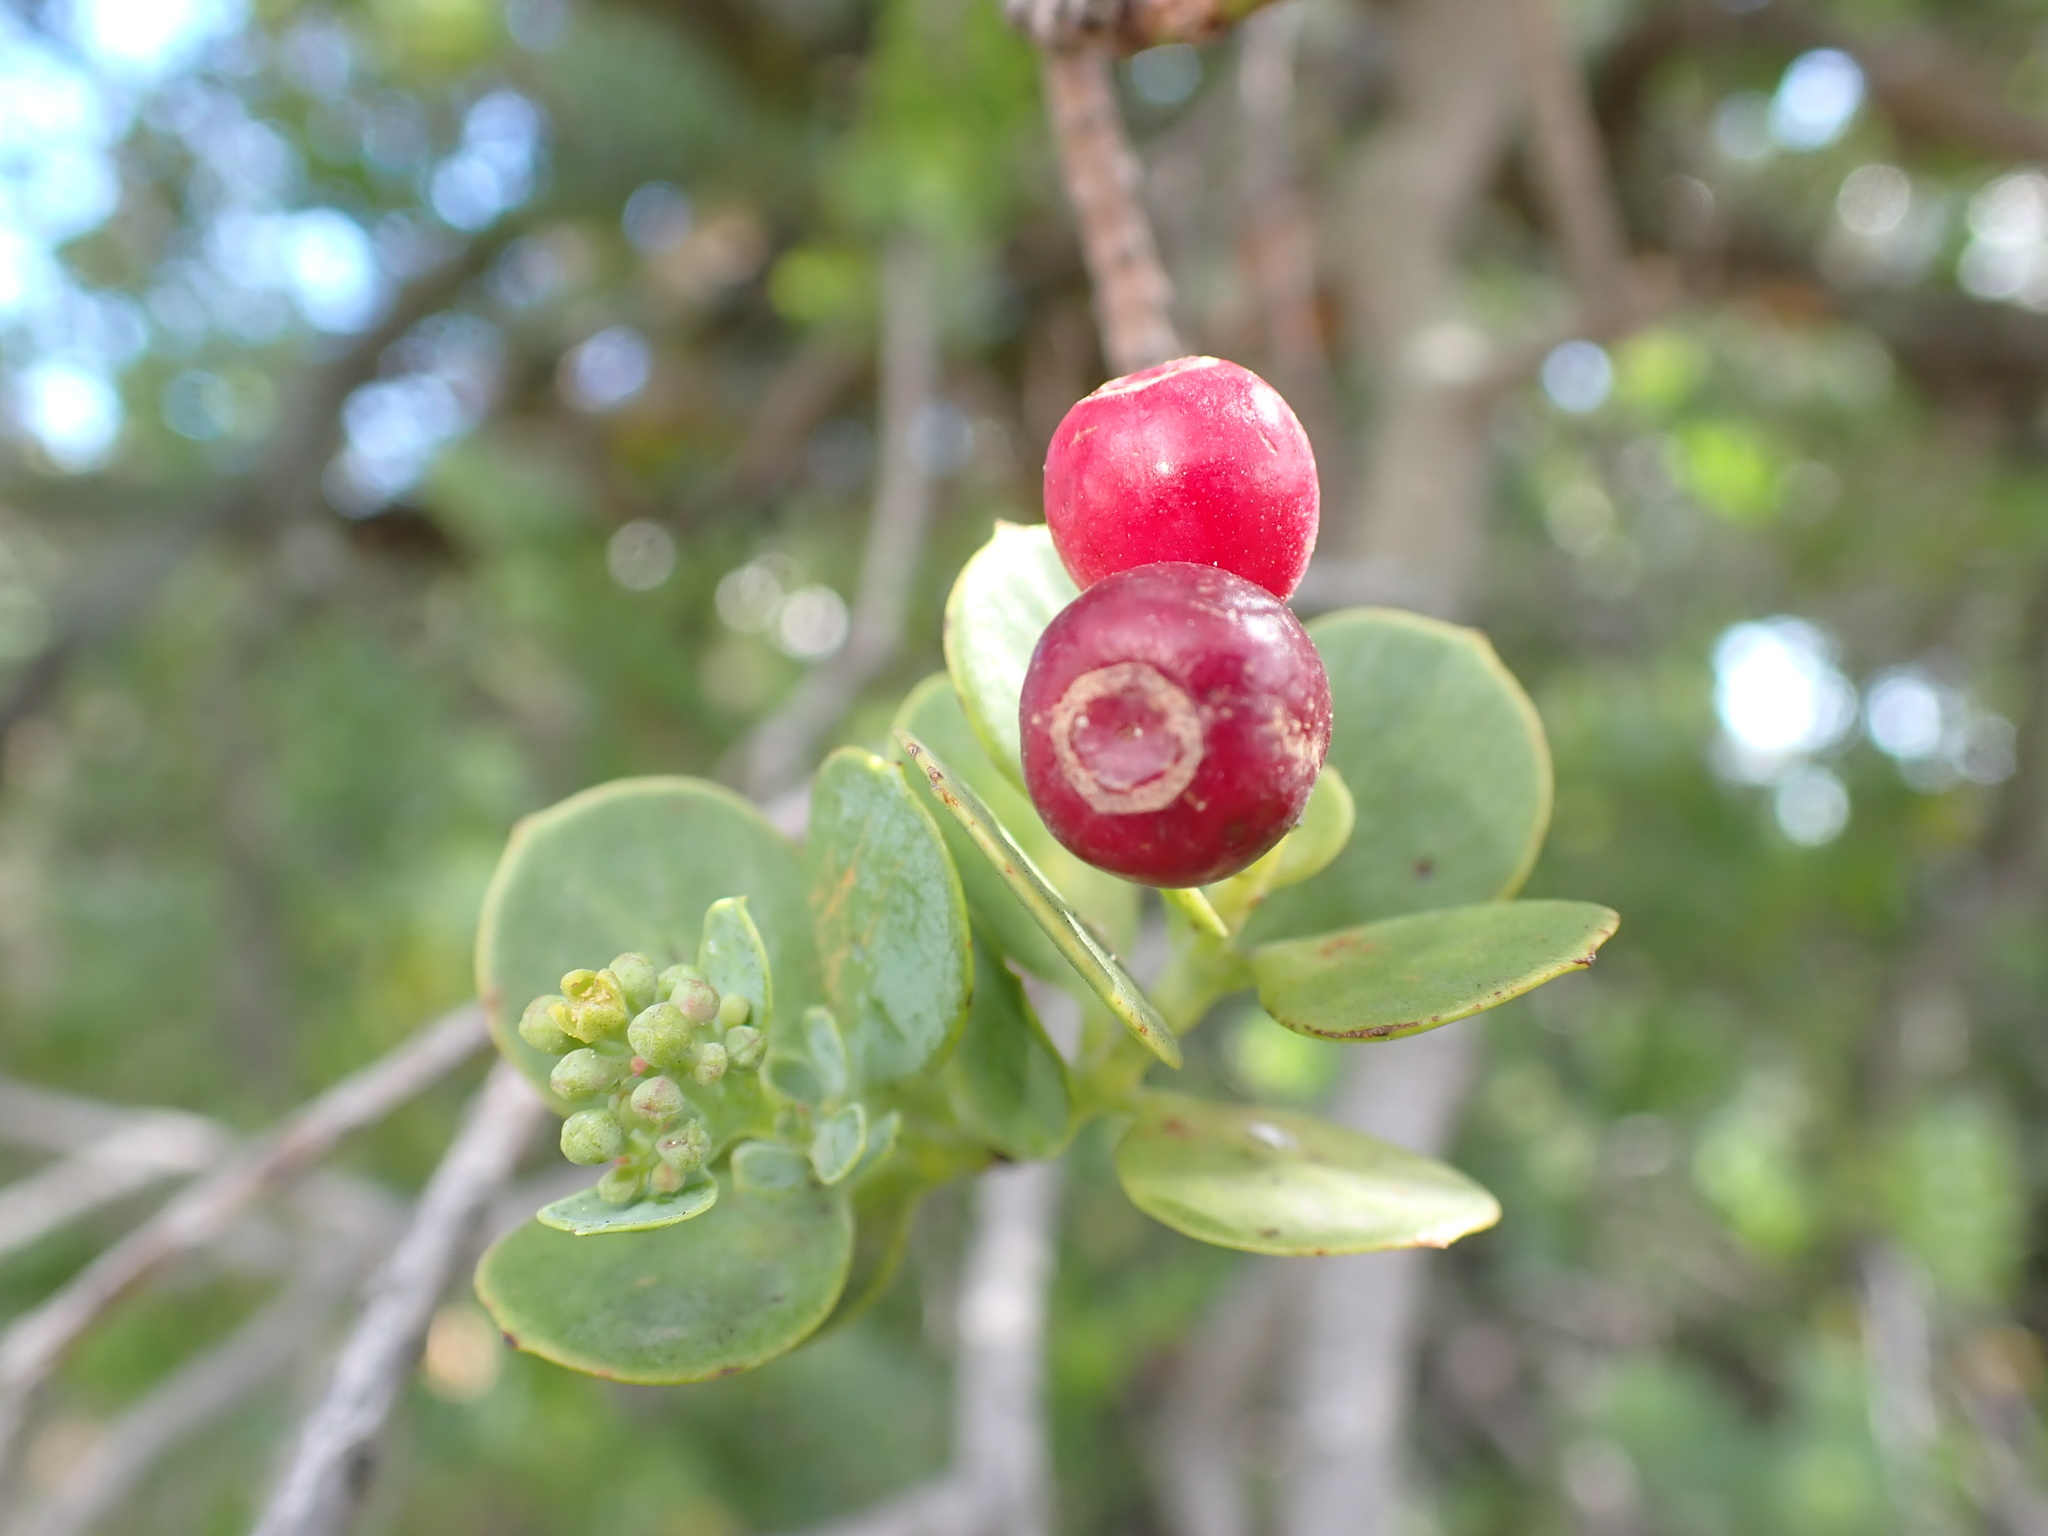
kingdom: Plantae
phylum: Tracheophyta
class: Magnoliopsida
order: Santalales
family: Santalaceae
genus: Osyris
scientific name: Osyris compressa
